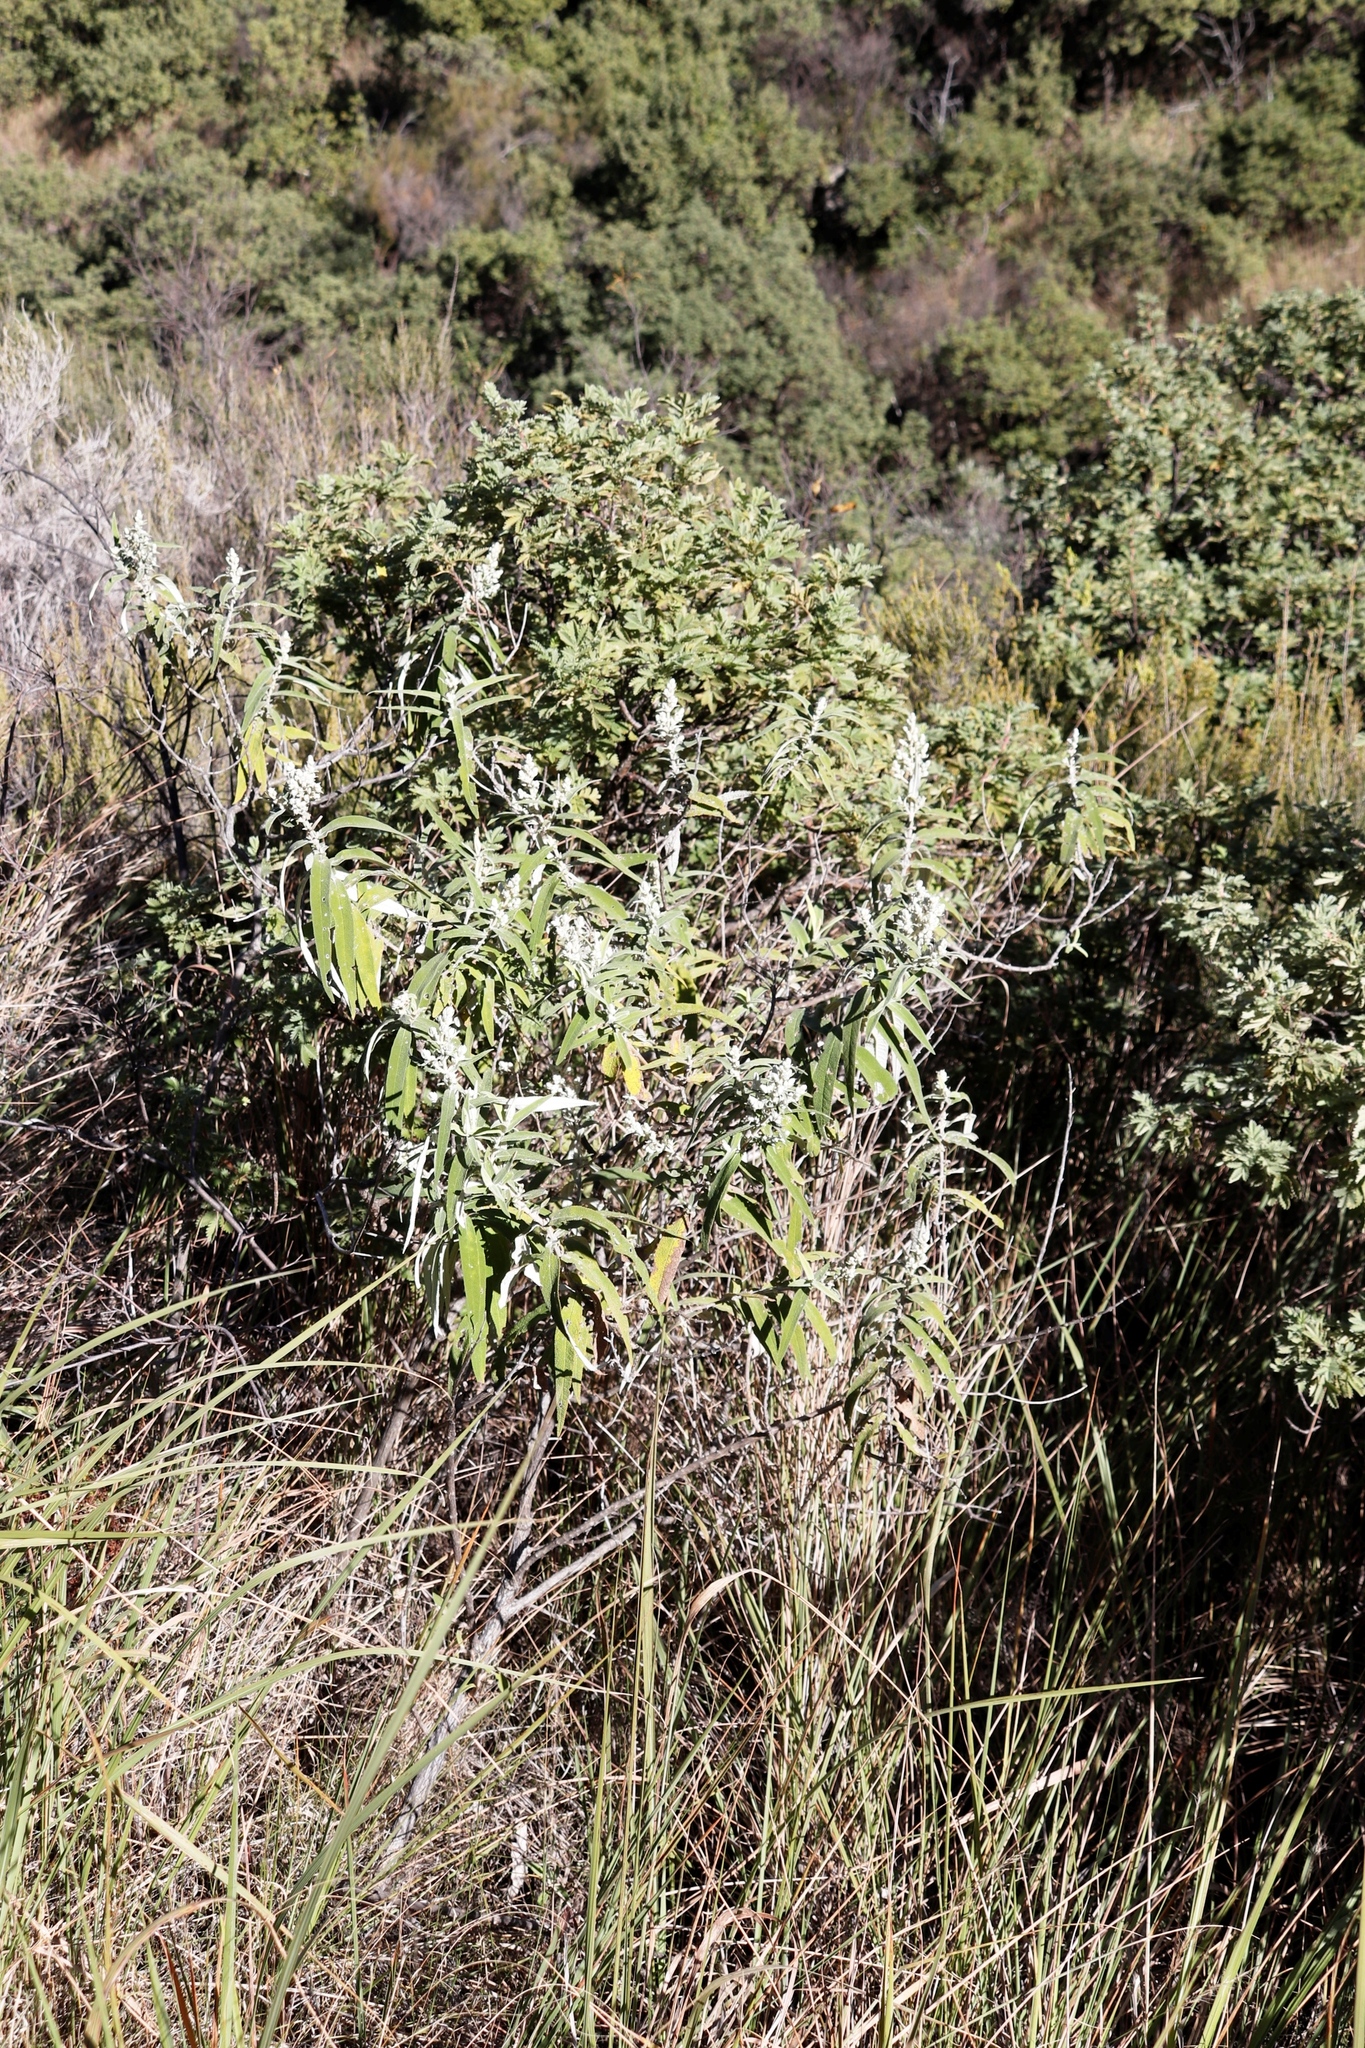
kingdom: Plantae
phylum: Tracheophyta
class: Magnoliopsida
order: Lamiales
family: Scrophulariaceae
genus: Buddleja
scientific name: Buddleja salviifolia
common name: Sagewood
